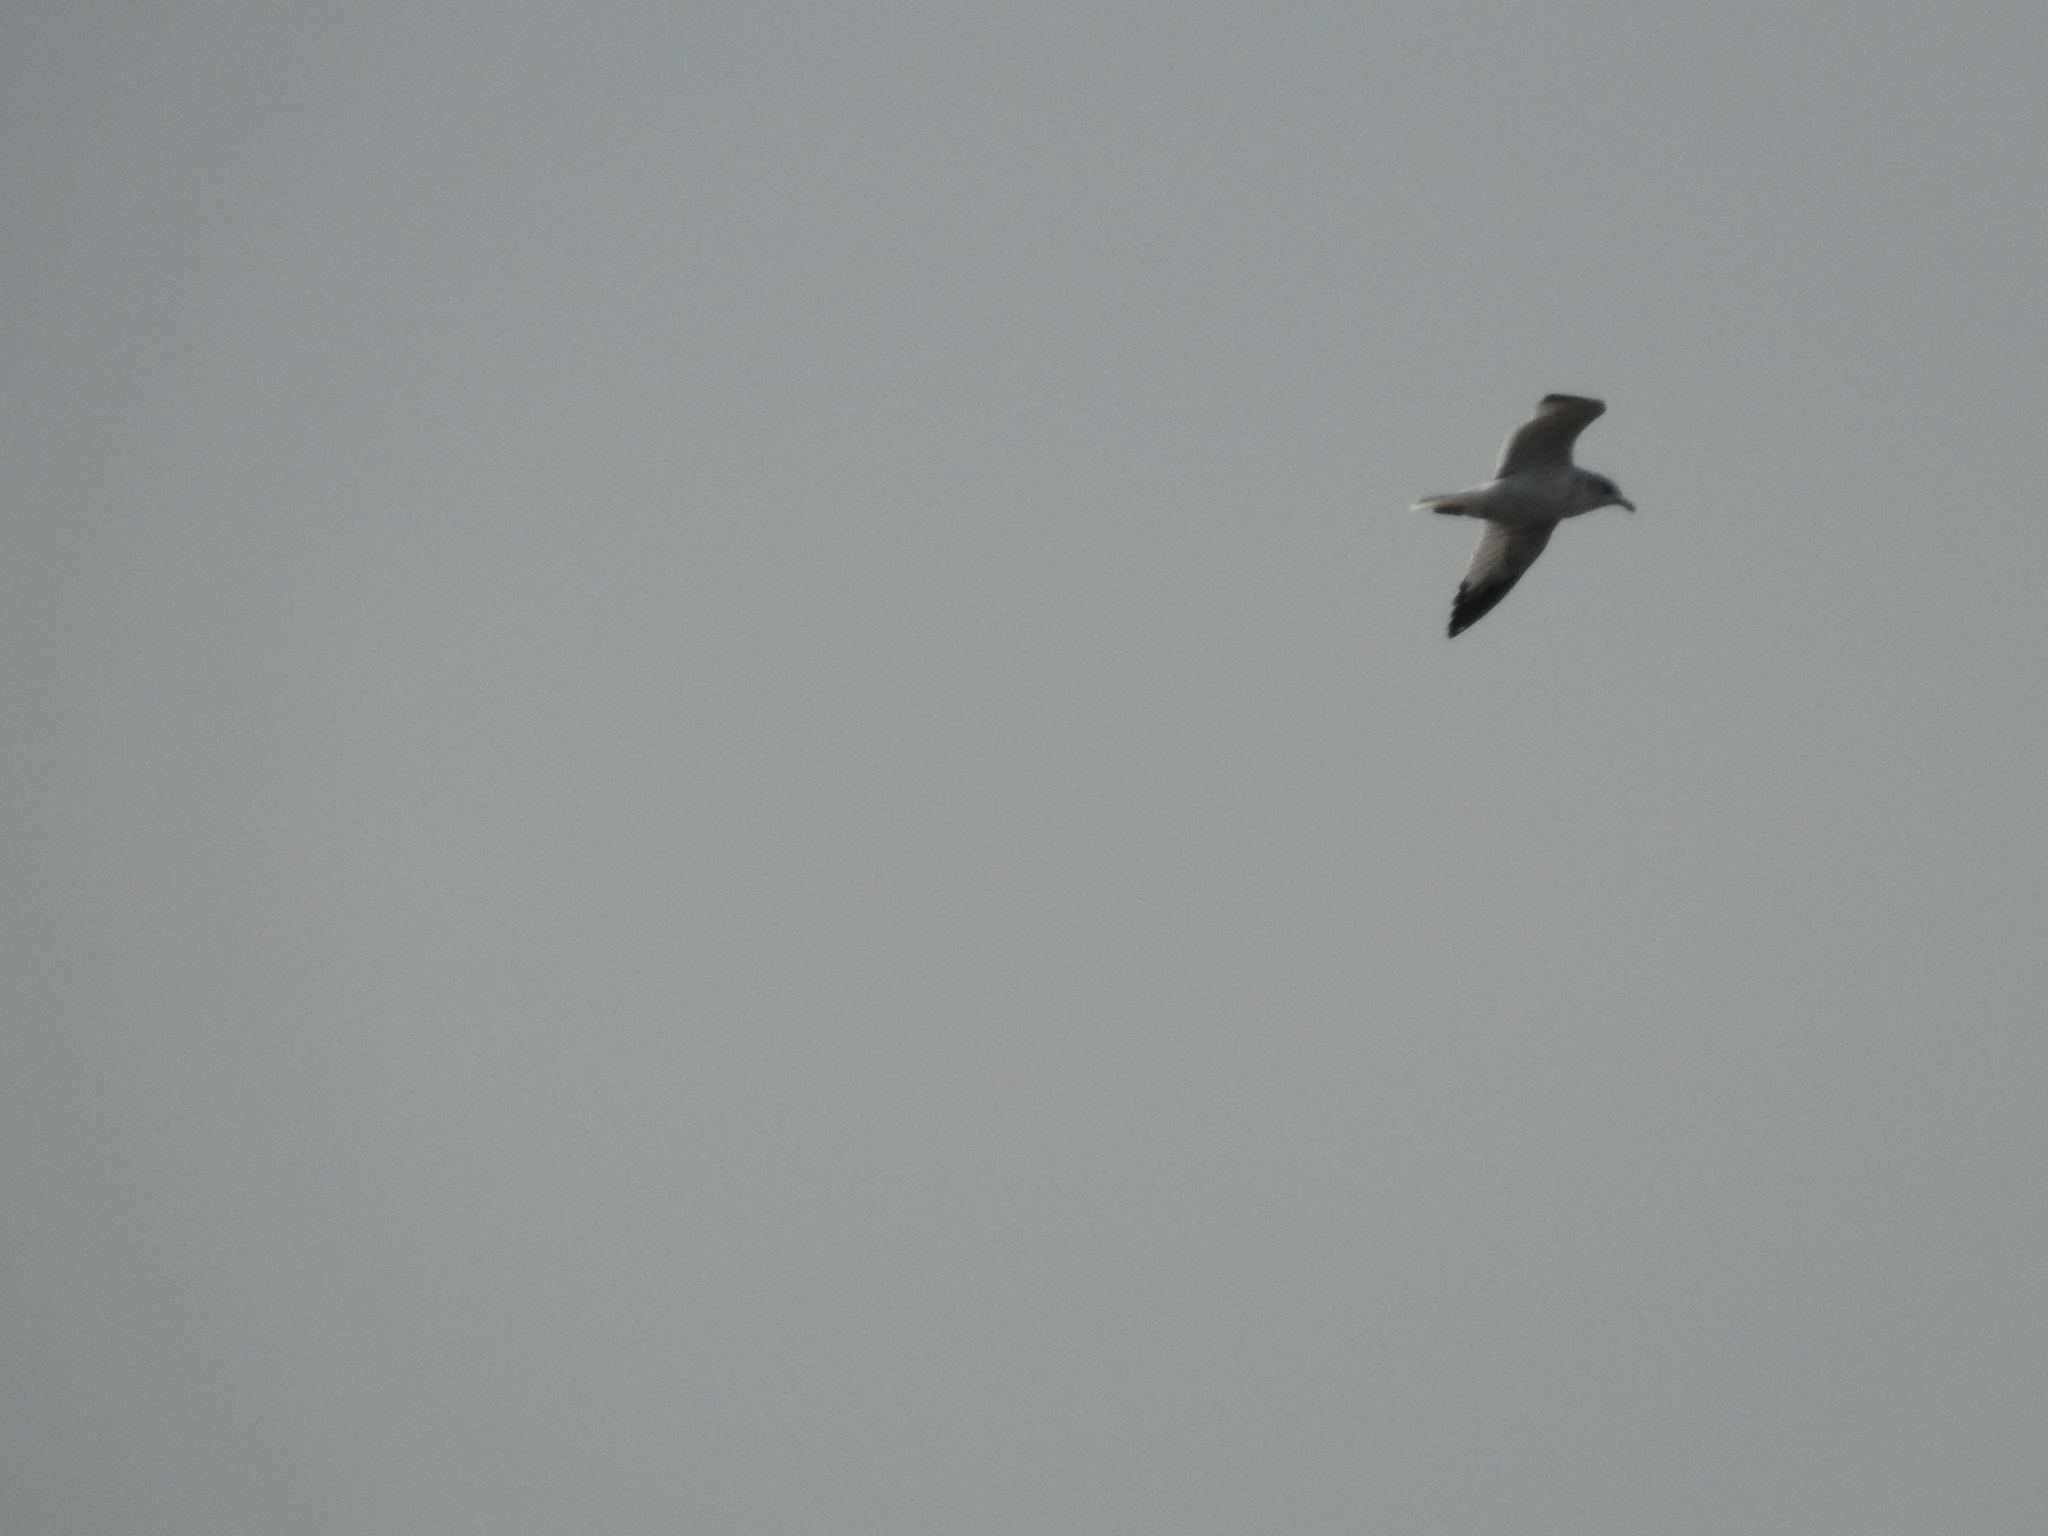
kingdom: Animalia
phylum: Chordata
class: Aves
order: Charadriiformes
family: Laridae
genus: Larus
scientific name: Larus delawarensis
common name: Ring-billed gull
